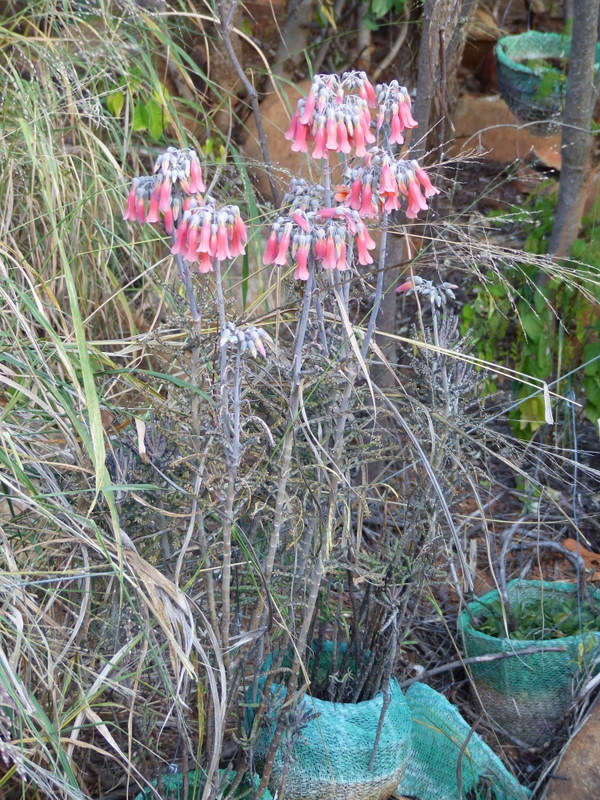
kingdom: Plantae
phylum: Tracheophyta
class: Magnoliopsida
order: Saxifragales
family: Crassulaceae
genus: Kalanchoe
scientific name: Kalanchoe delagoensis
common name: Chandelier plant
